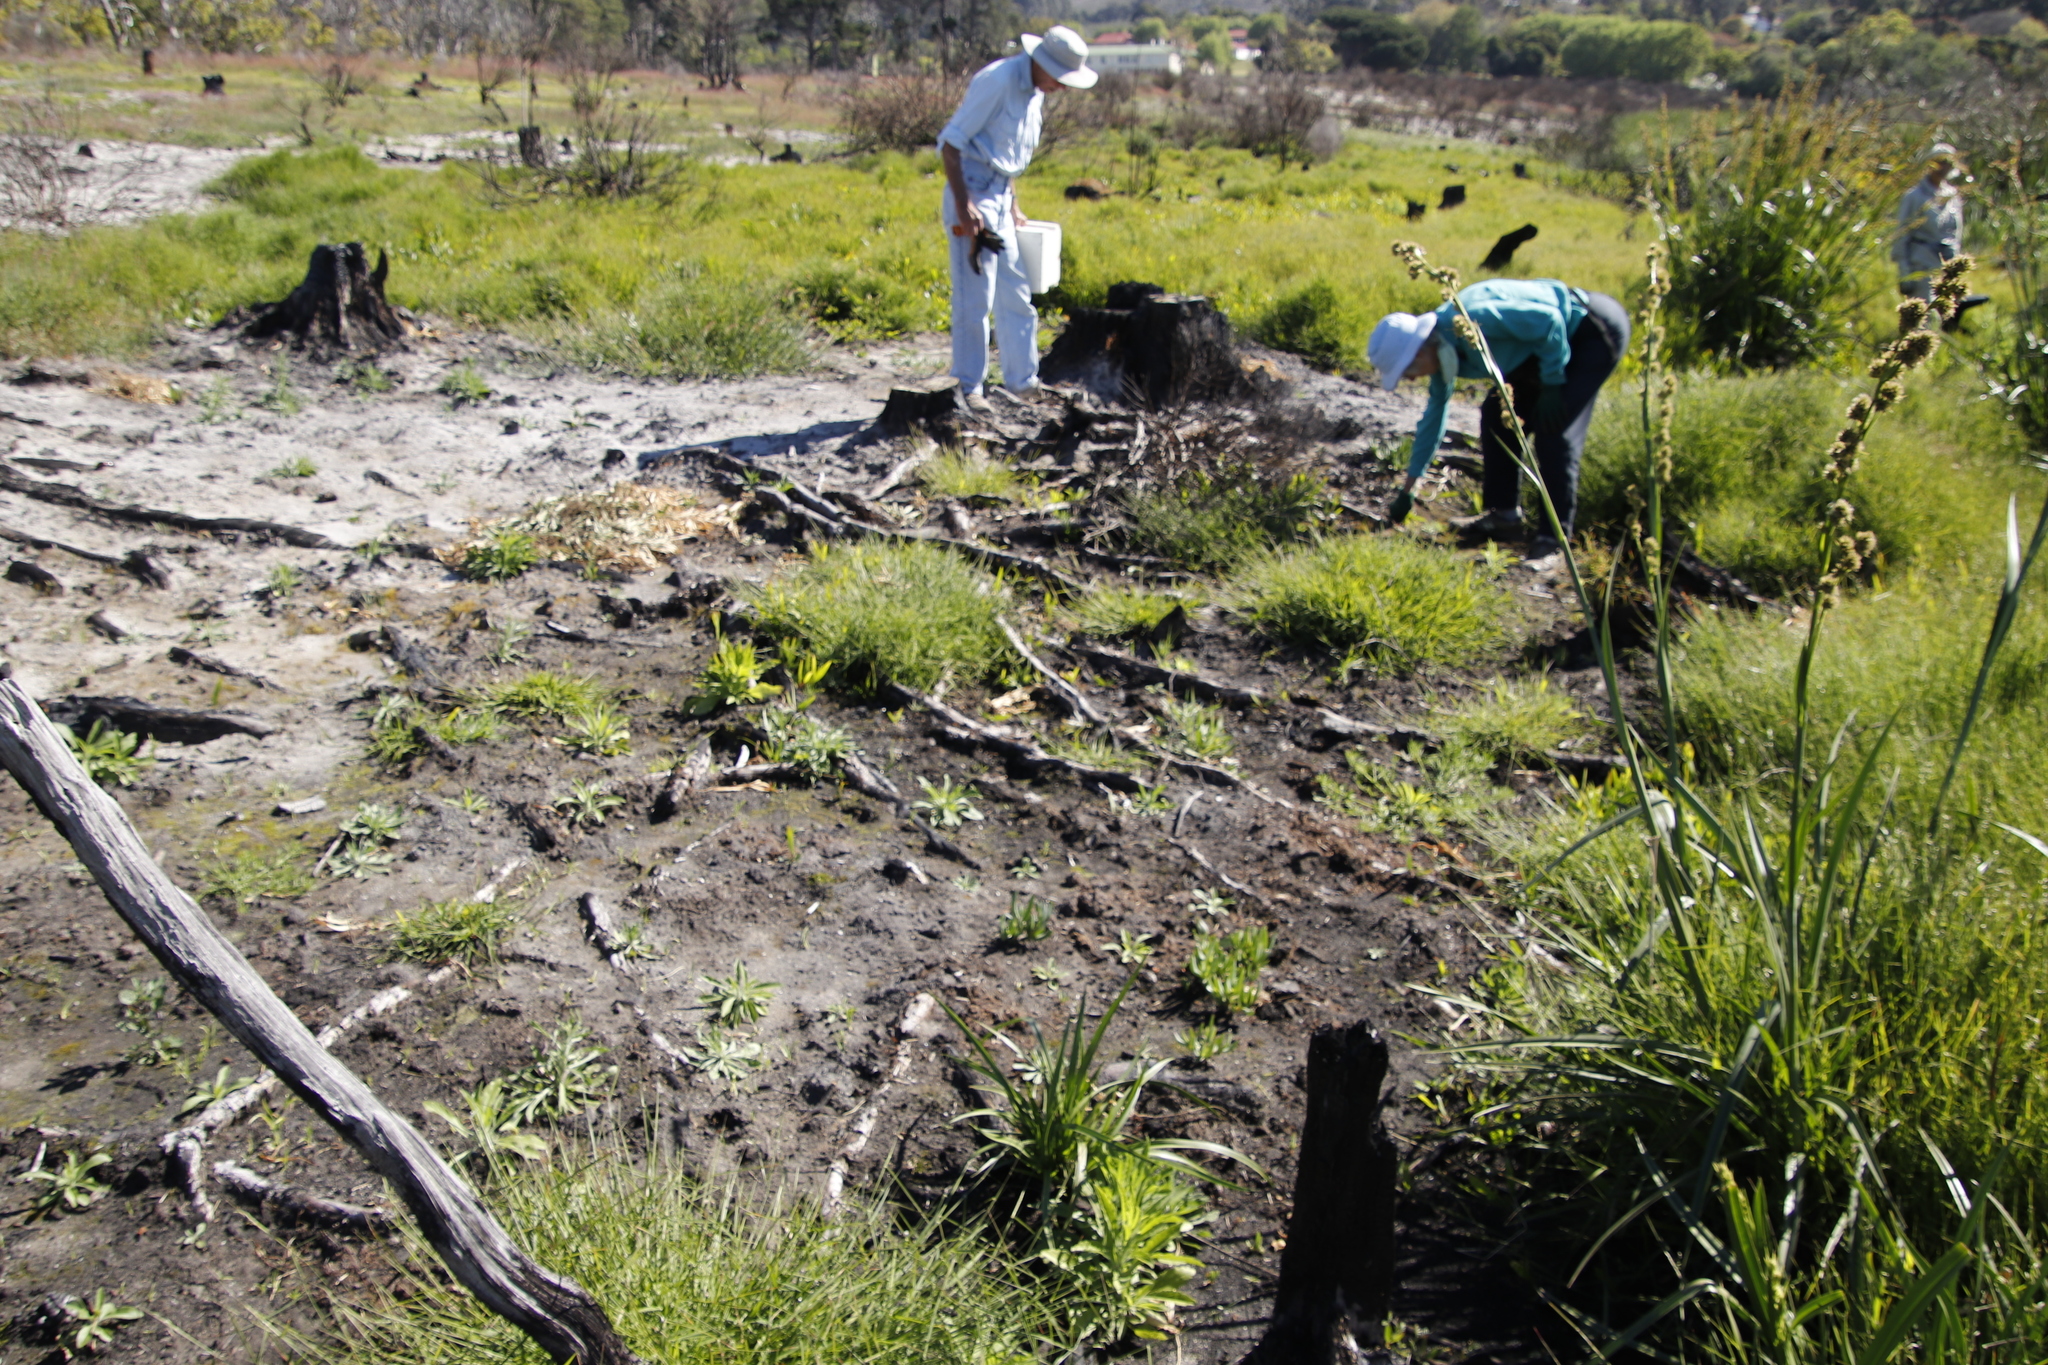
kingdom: Plantae
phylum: Tracheophyta
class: Liliopsida
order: Poales
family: Cyperaceae
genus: Carpha
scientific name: Carpha glomerata
